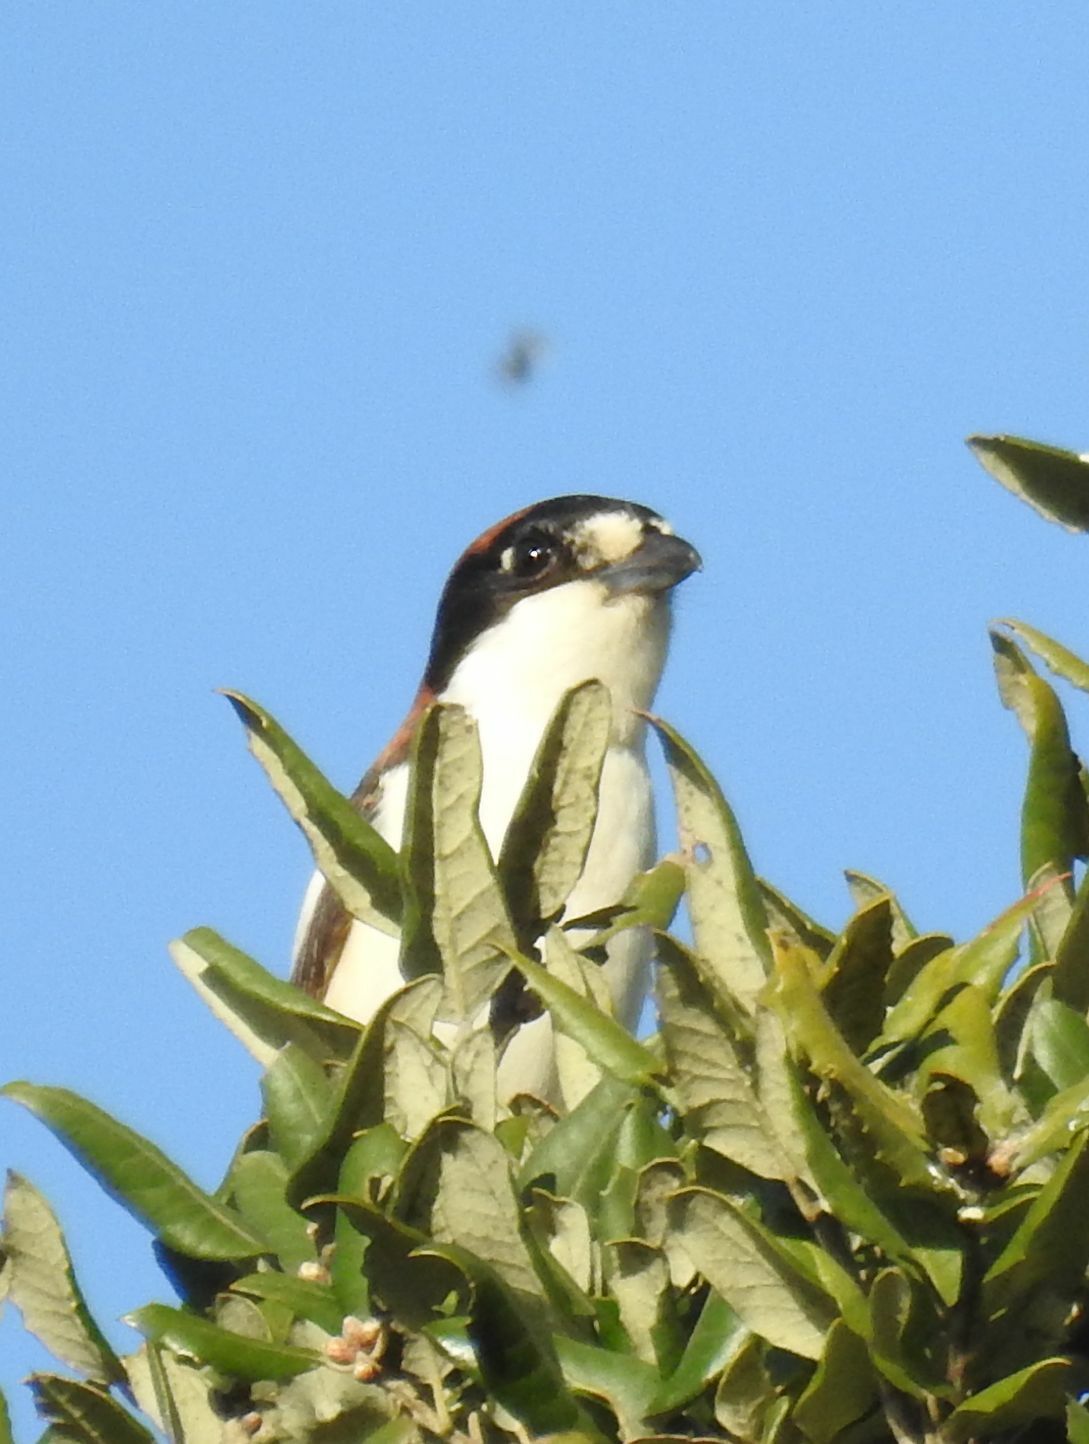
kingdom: Animalia
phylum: Chordata
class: Aves
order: Passeriformes
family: Laniidae
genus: Lanius
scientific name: Lanius senator
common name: Woodchat shrike
